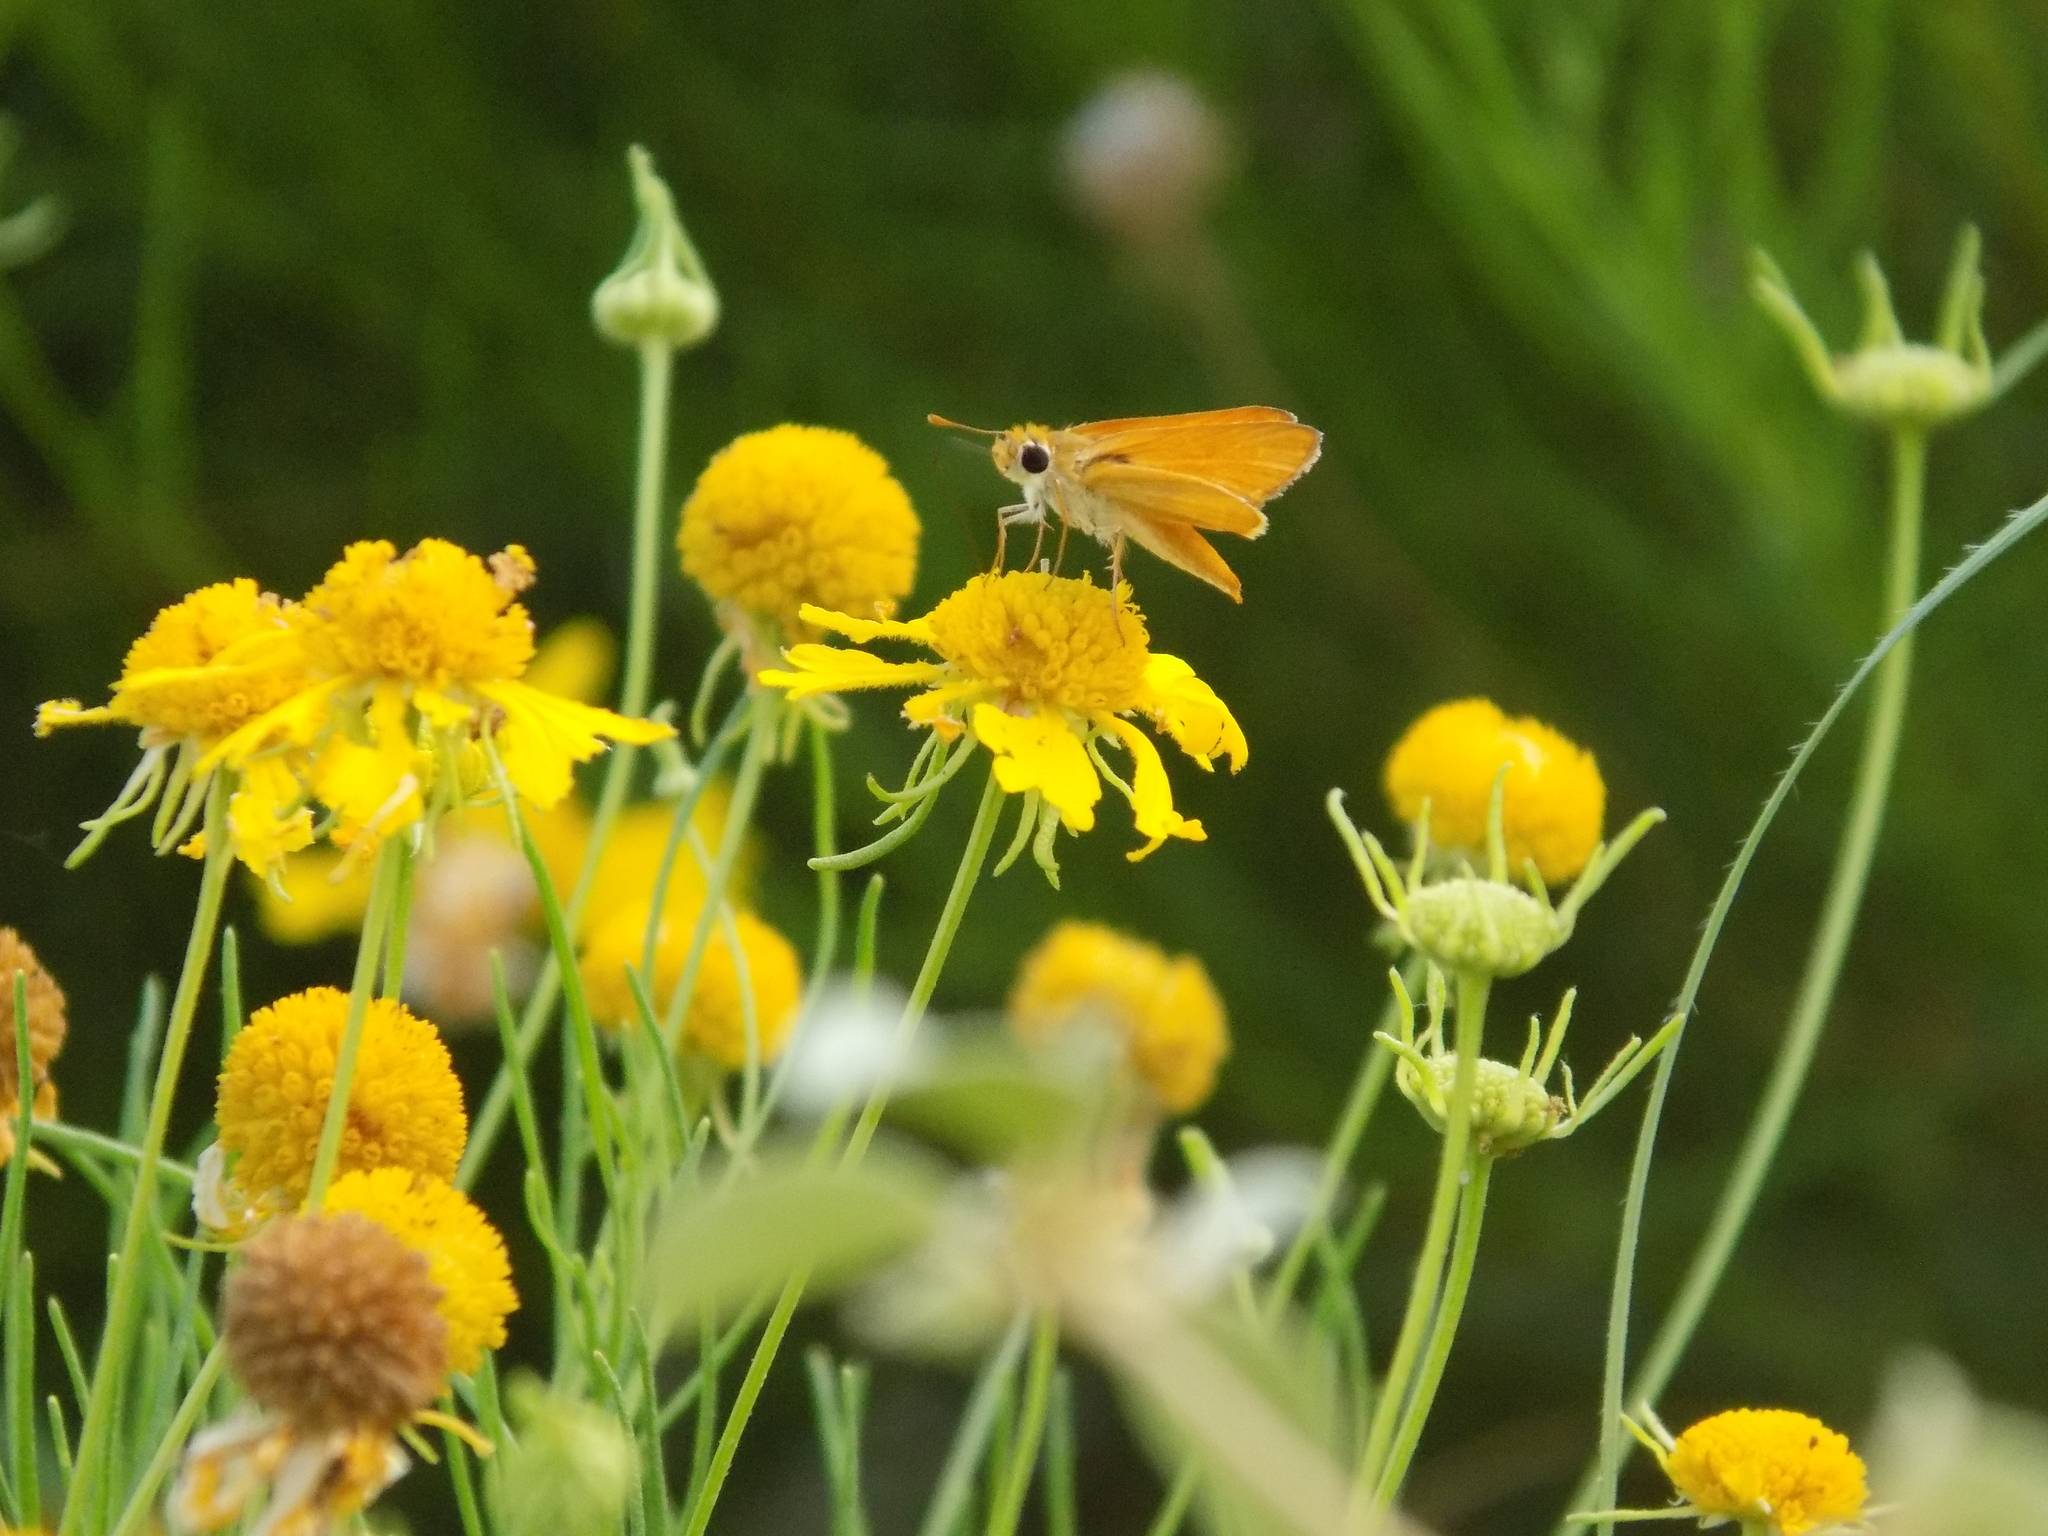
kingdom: Animalia
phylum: Arthropoda
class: Insecta
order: Lepidoptera
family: Hesperiidae
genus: Copaeodes
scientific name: Copaeodes aurantiaca
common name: Orange skipperling
